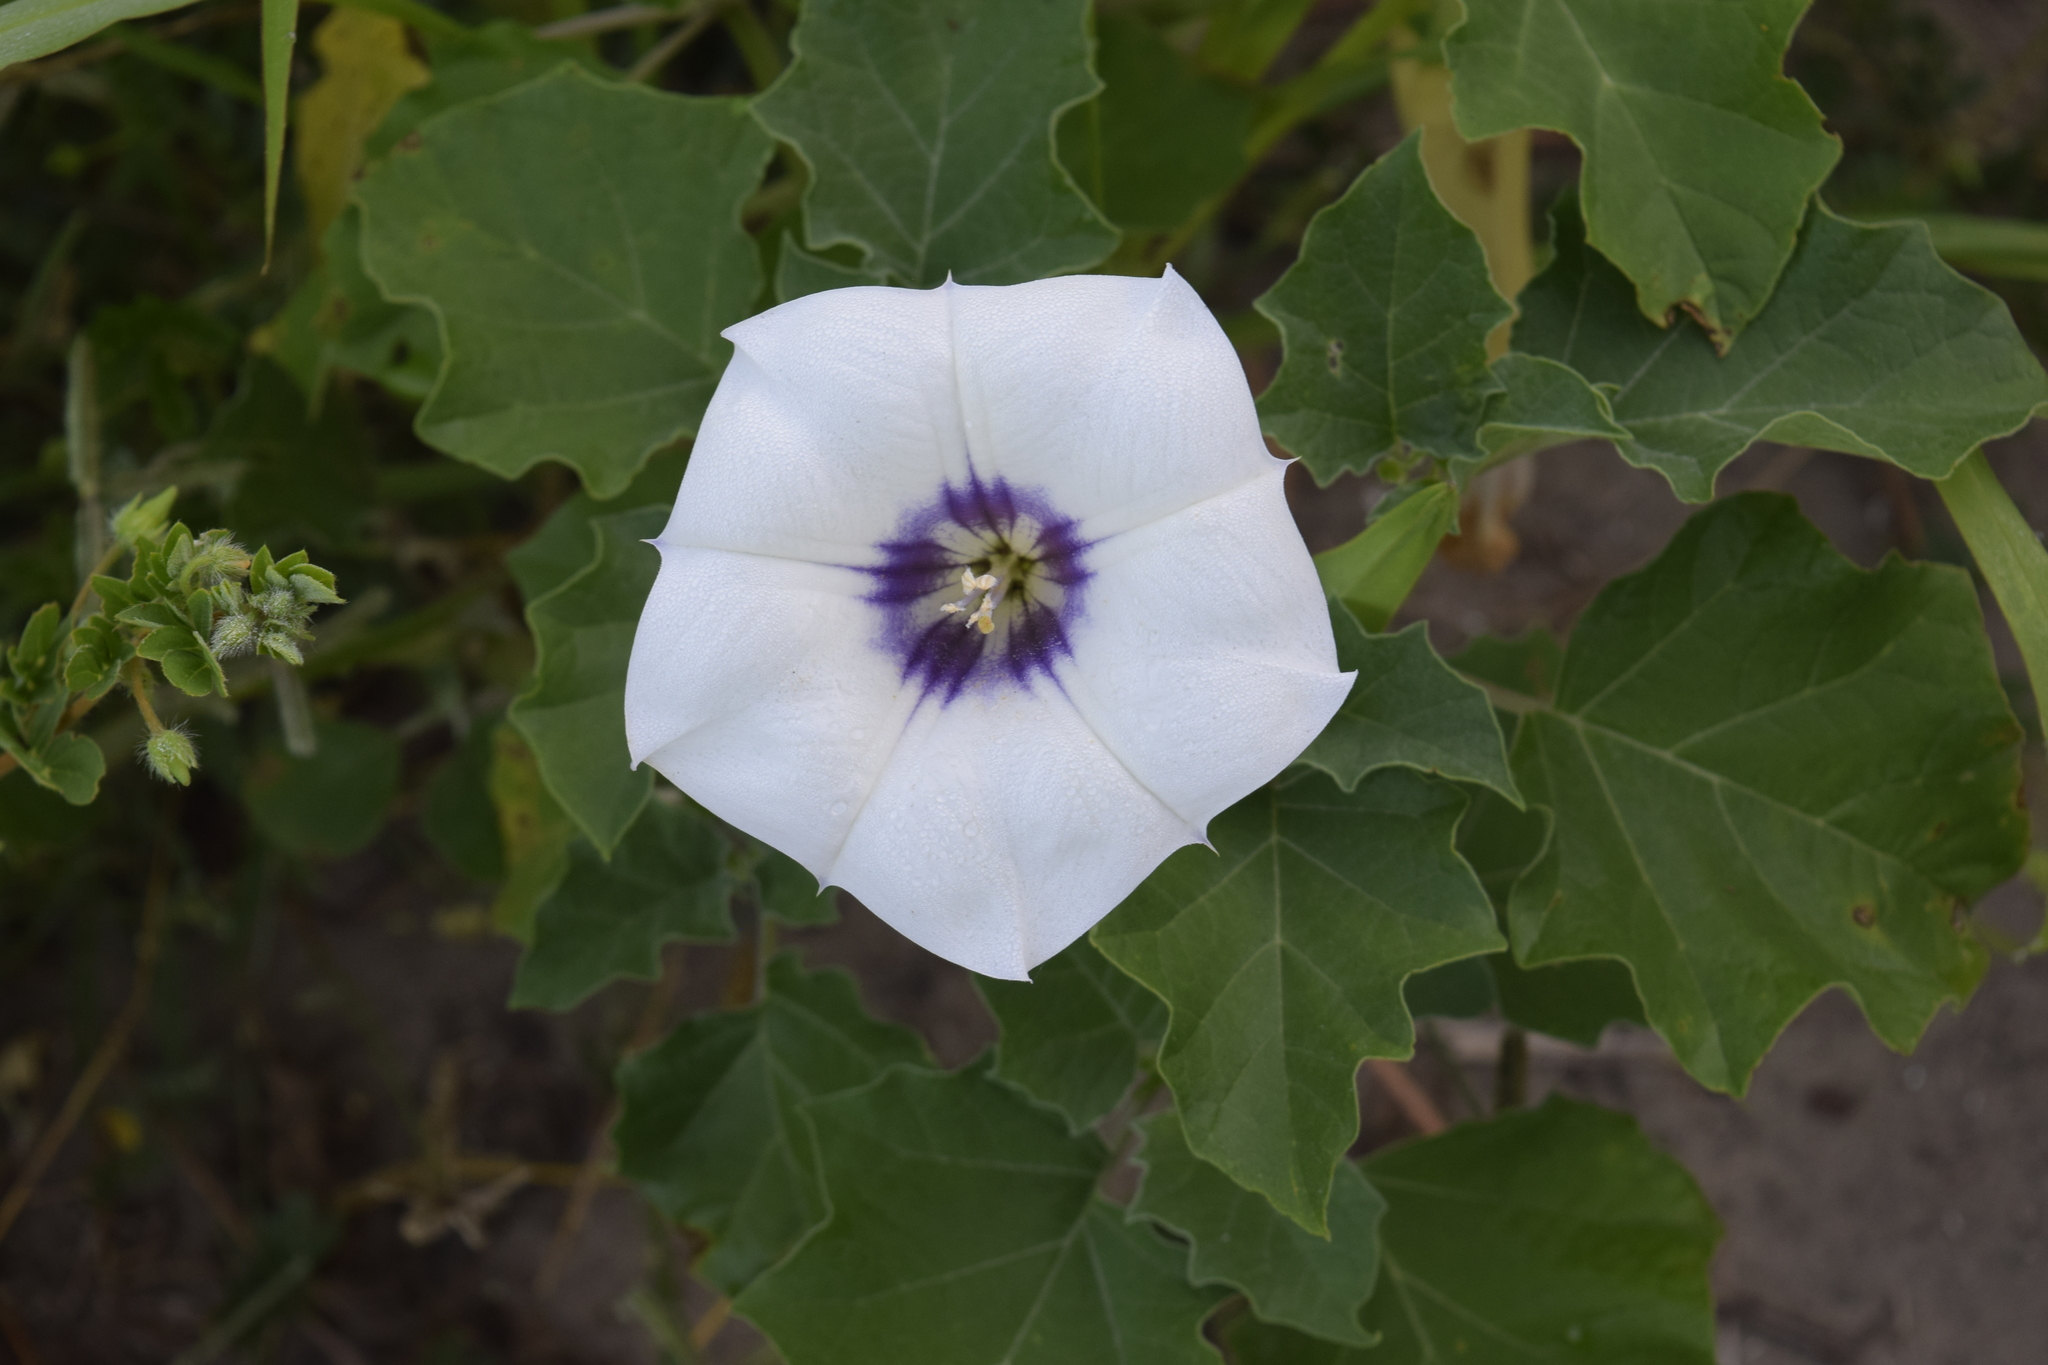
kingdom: Plantae
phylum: Tracheophyta
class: Magnoliopsida
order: Solanales
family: Solanaceae
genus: Datura
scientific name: Datura discolor
